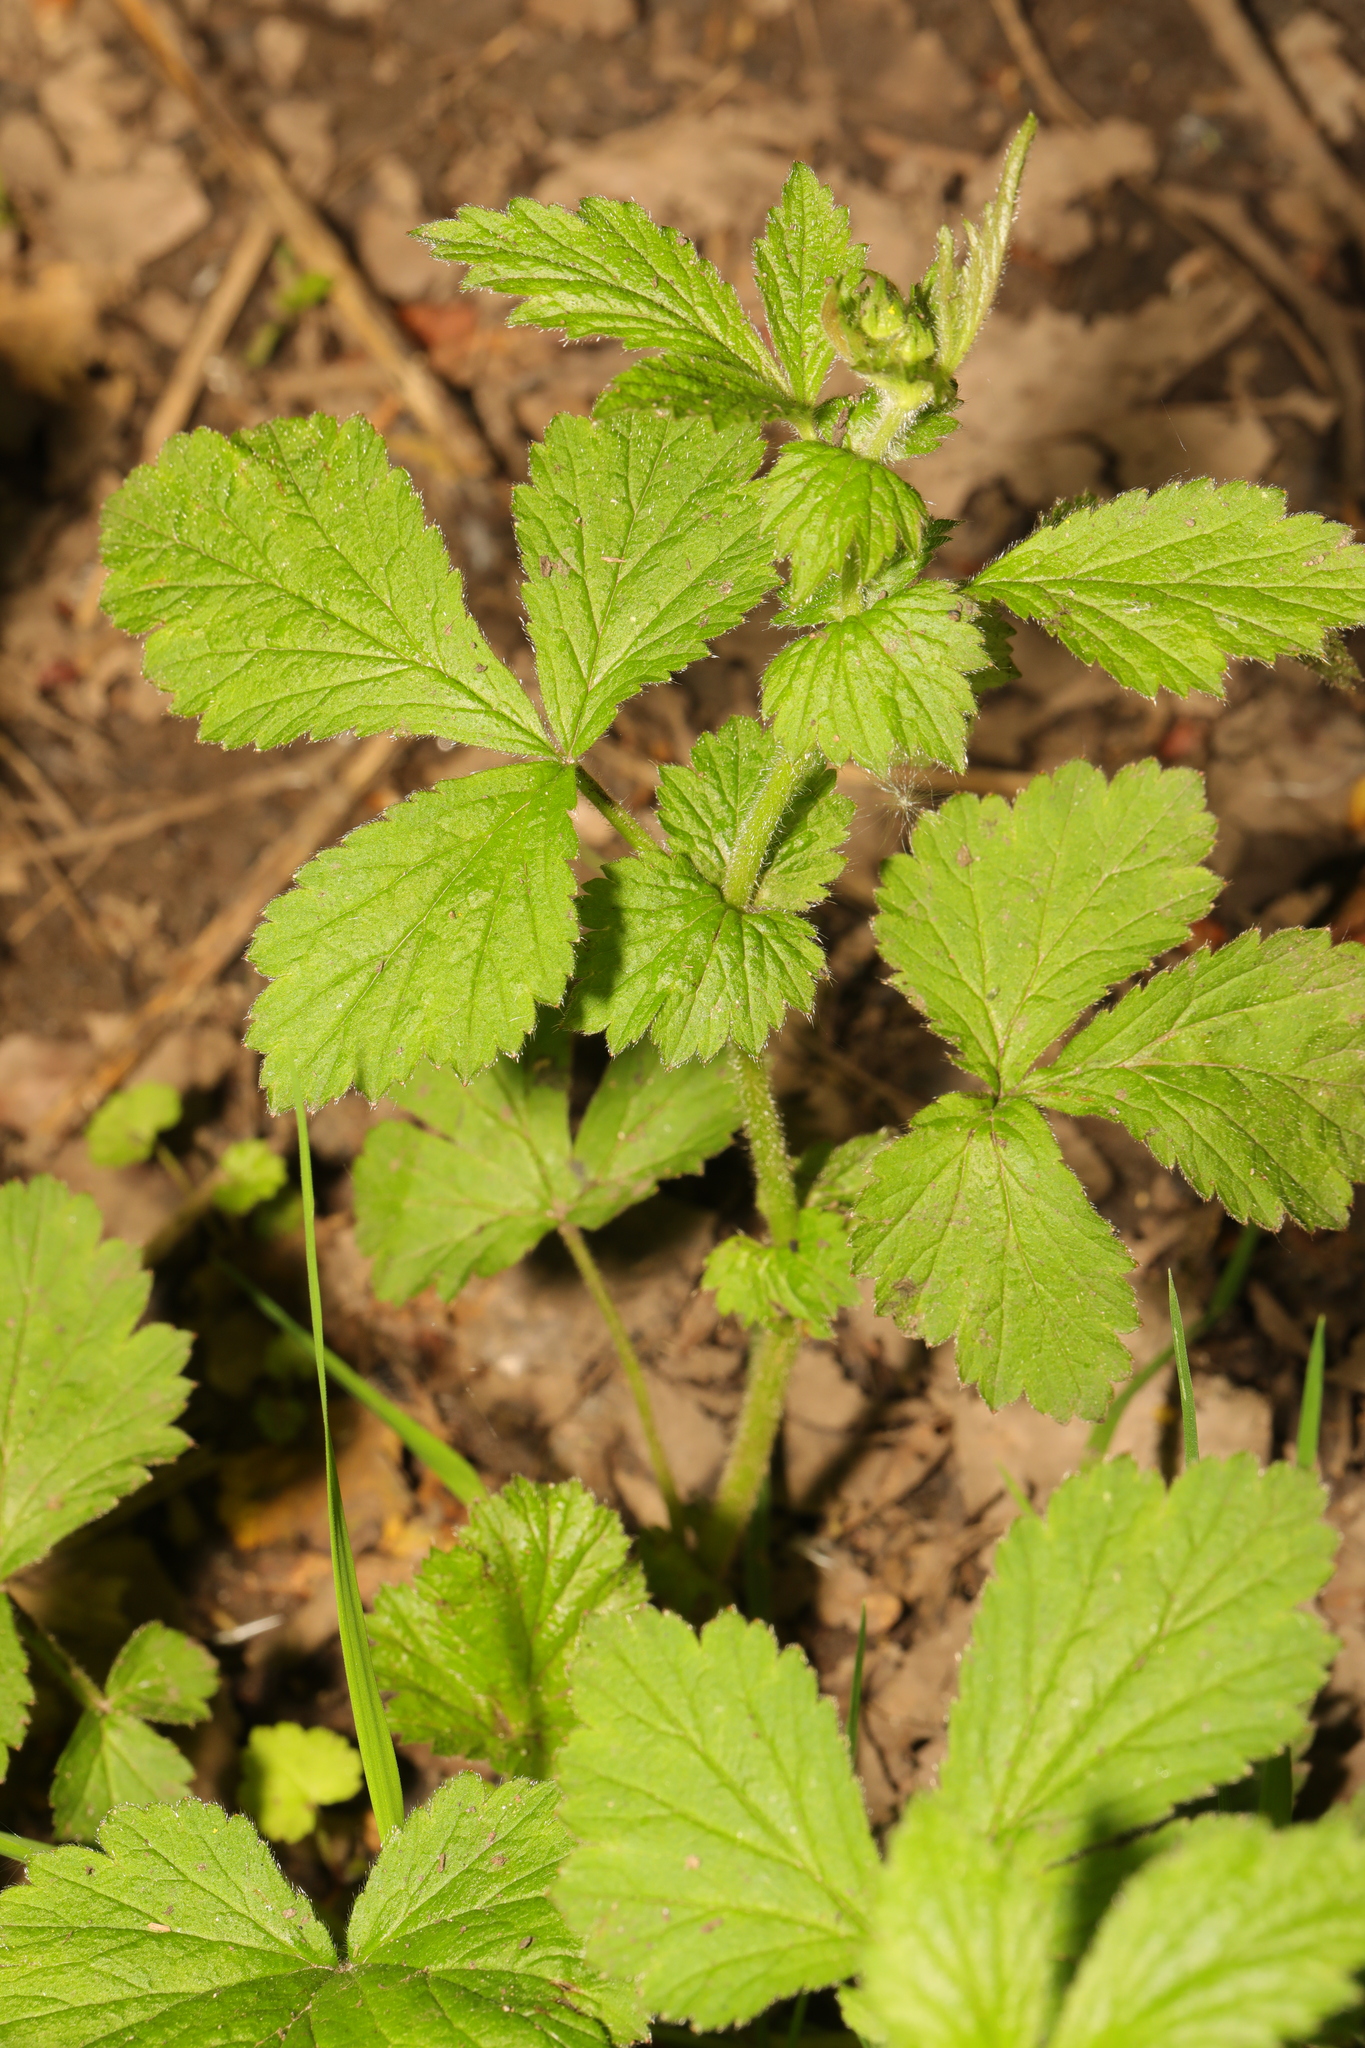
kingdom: Plantae
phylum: Tracheophyta
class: Magnoliopsida
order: Rosales
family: Rosaceae
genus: Geum
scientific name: Geum urbanum
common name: Wood avens
